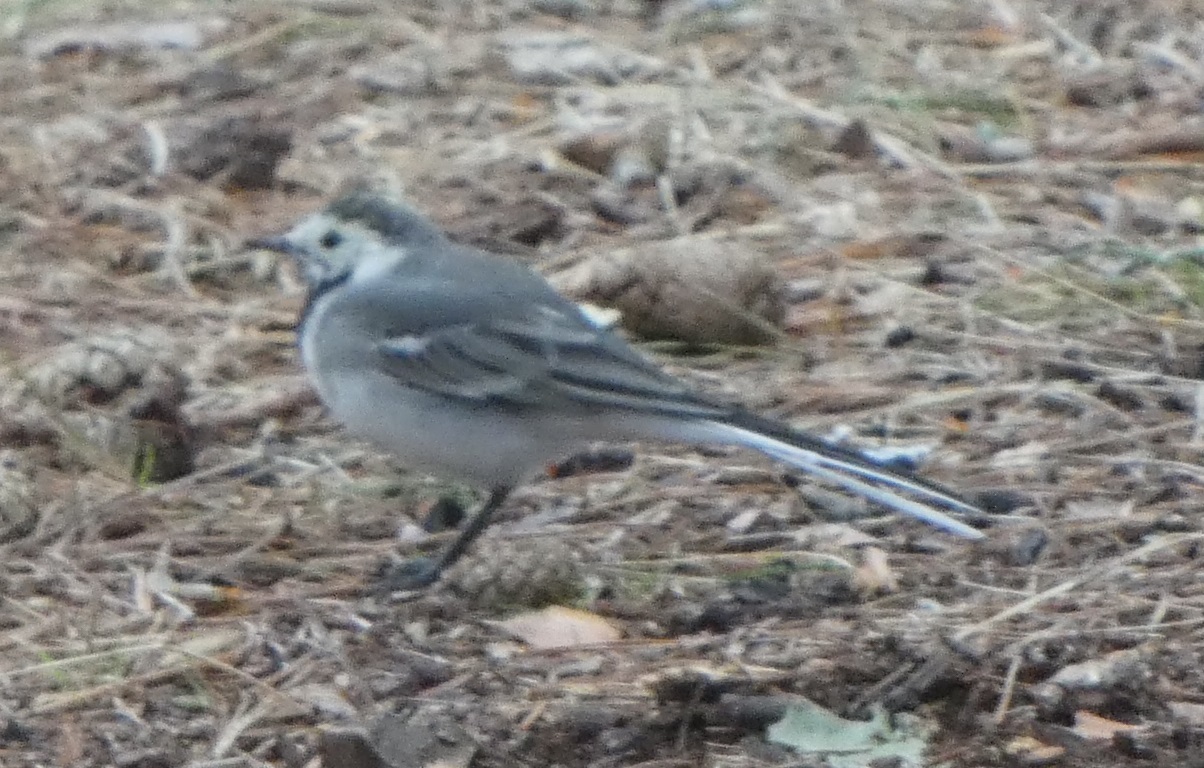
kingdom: Animalia
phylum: Chordata
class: Aves
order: Passeriformes
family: Motacillidae
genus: Motacilla
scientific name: Motacilla alba
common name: White wagtail
